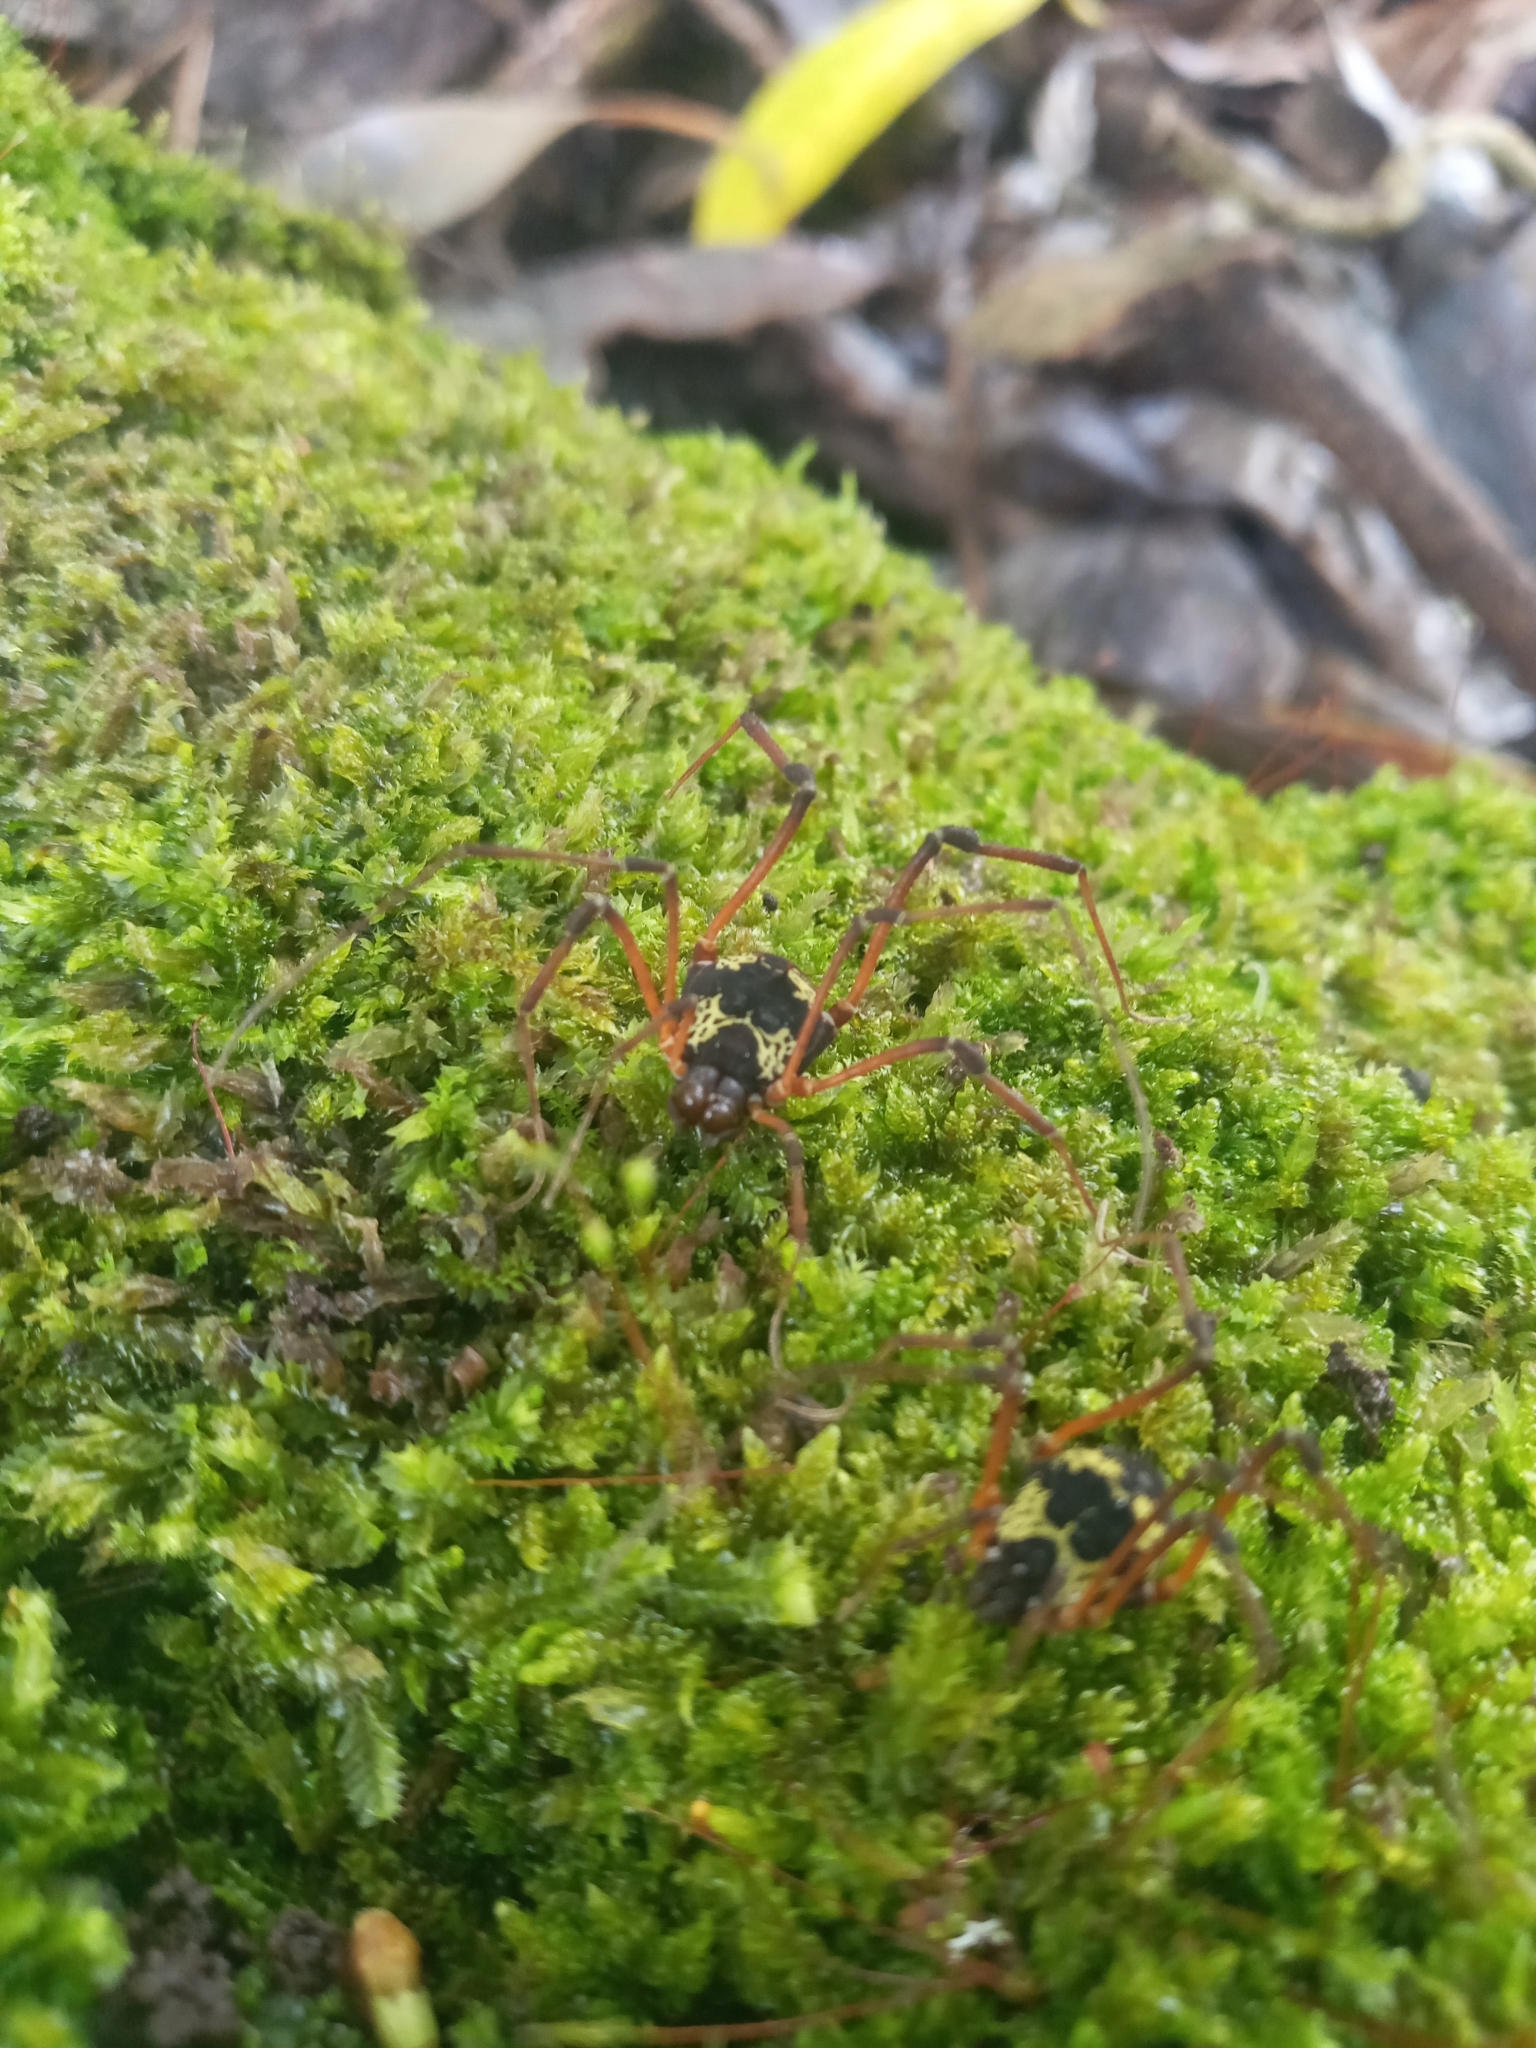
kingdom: Animalia
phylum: Arthropoda
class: Arachnida
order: Opiliones
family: Cosmetidae
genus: Cynorta
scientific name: Cynorta casita
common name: Harvestmen
